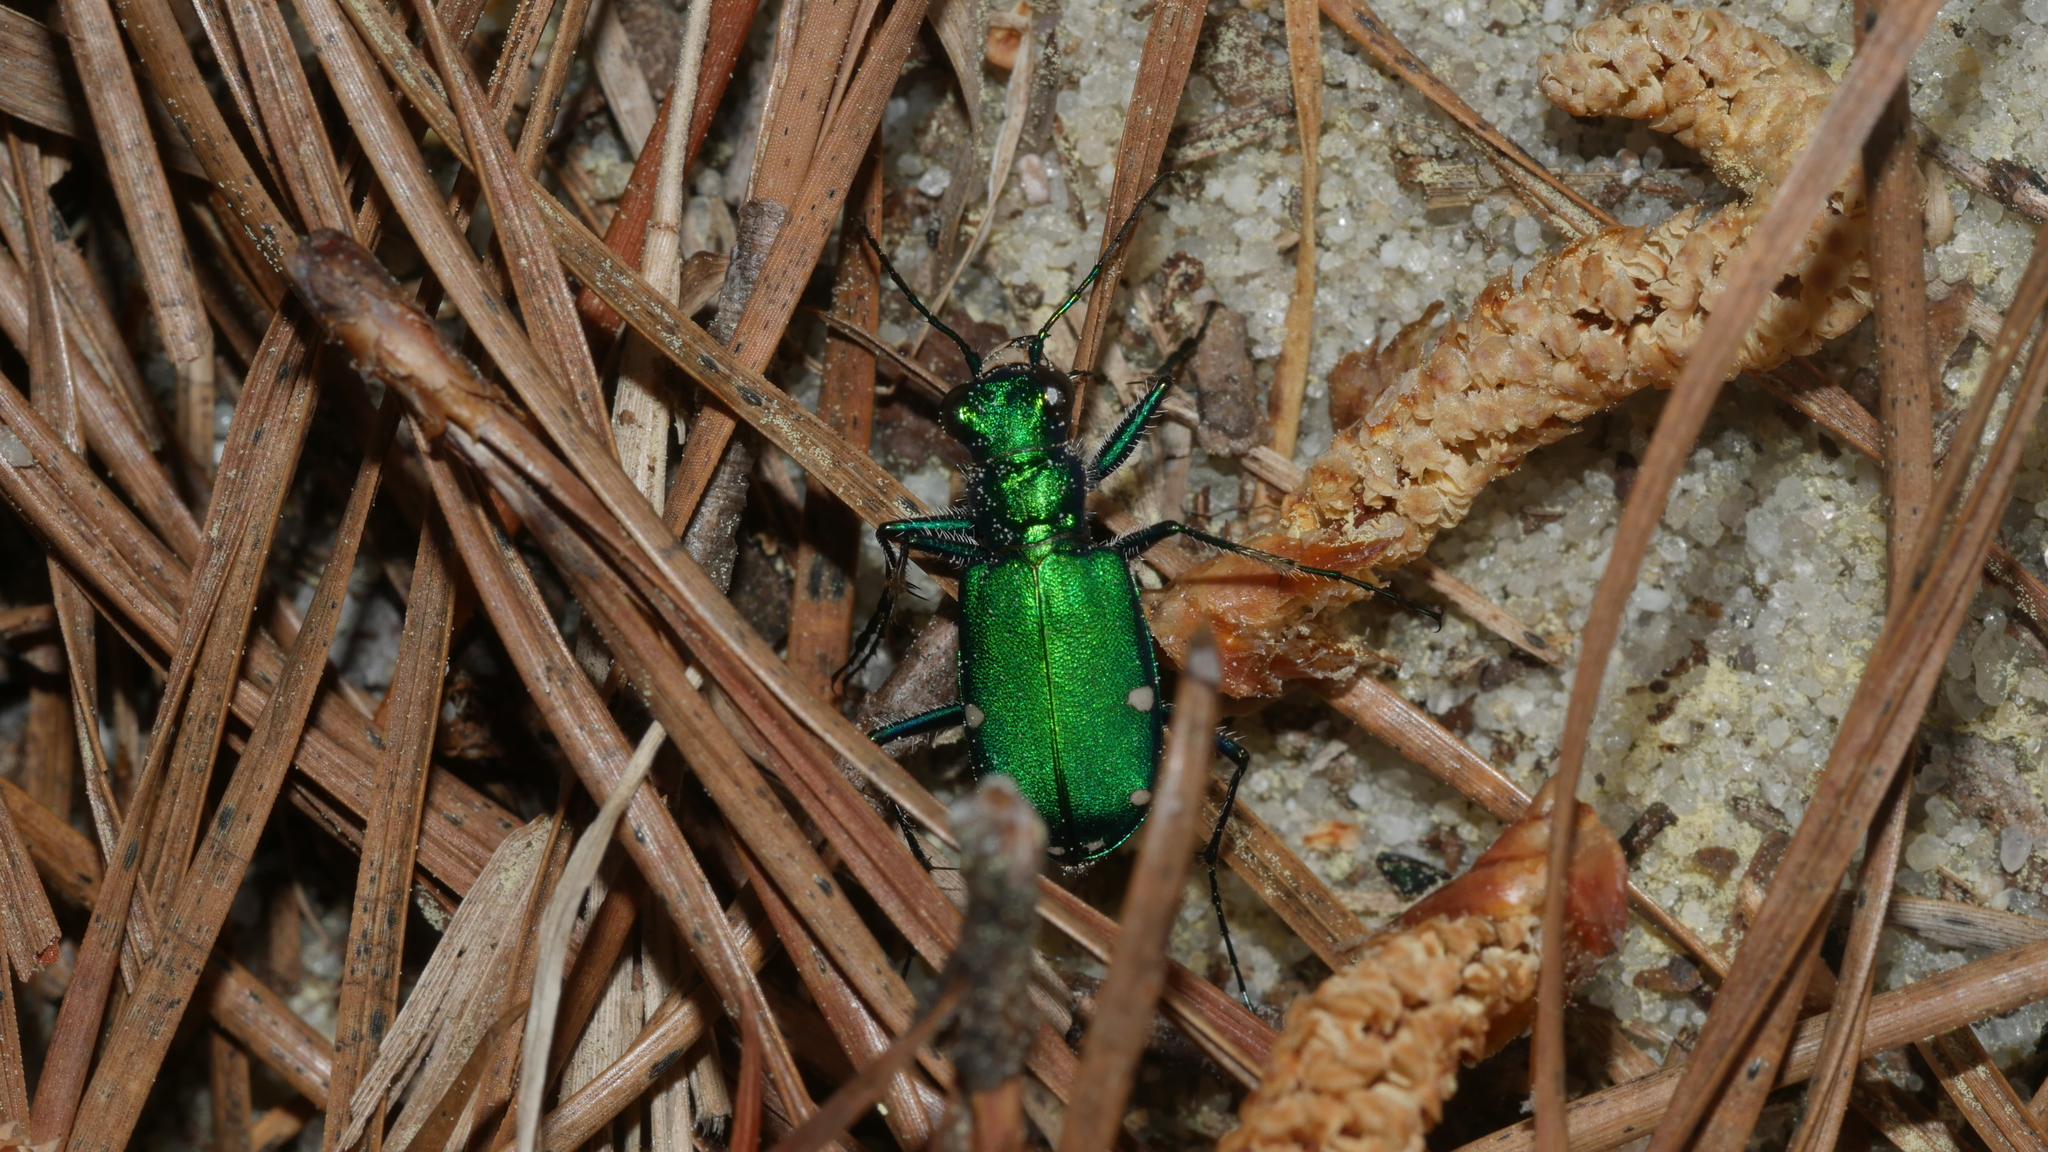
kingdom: Animalia
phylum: Arthropoda
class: Insecta
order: Coleoptera
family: Carabidae
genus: Cicindela
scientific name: Cicindela sexguttata
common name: Six-spotted tiger beetle
